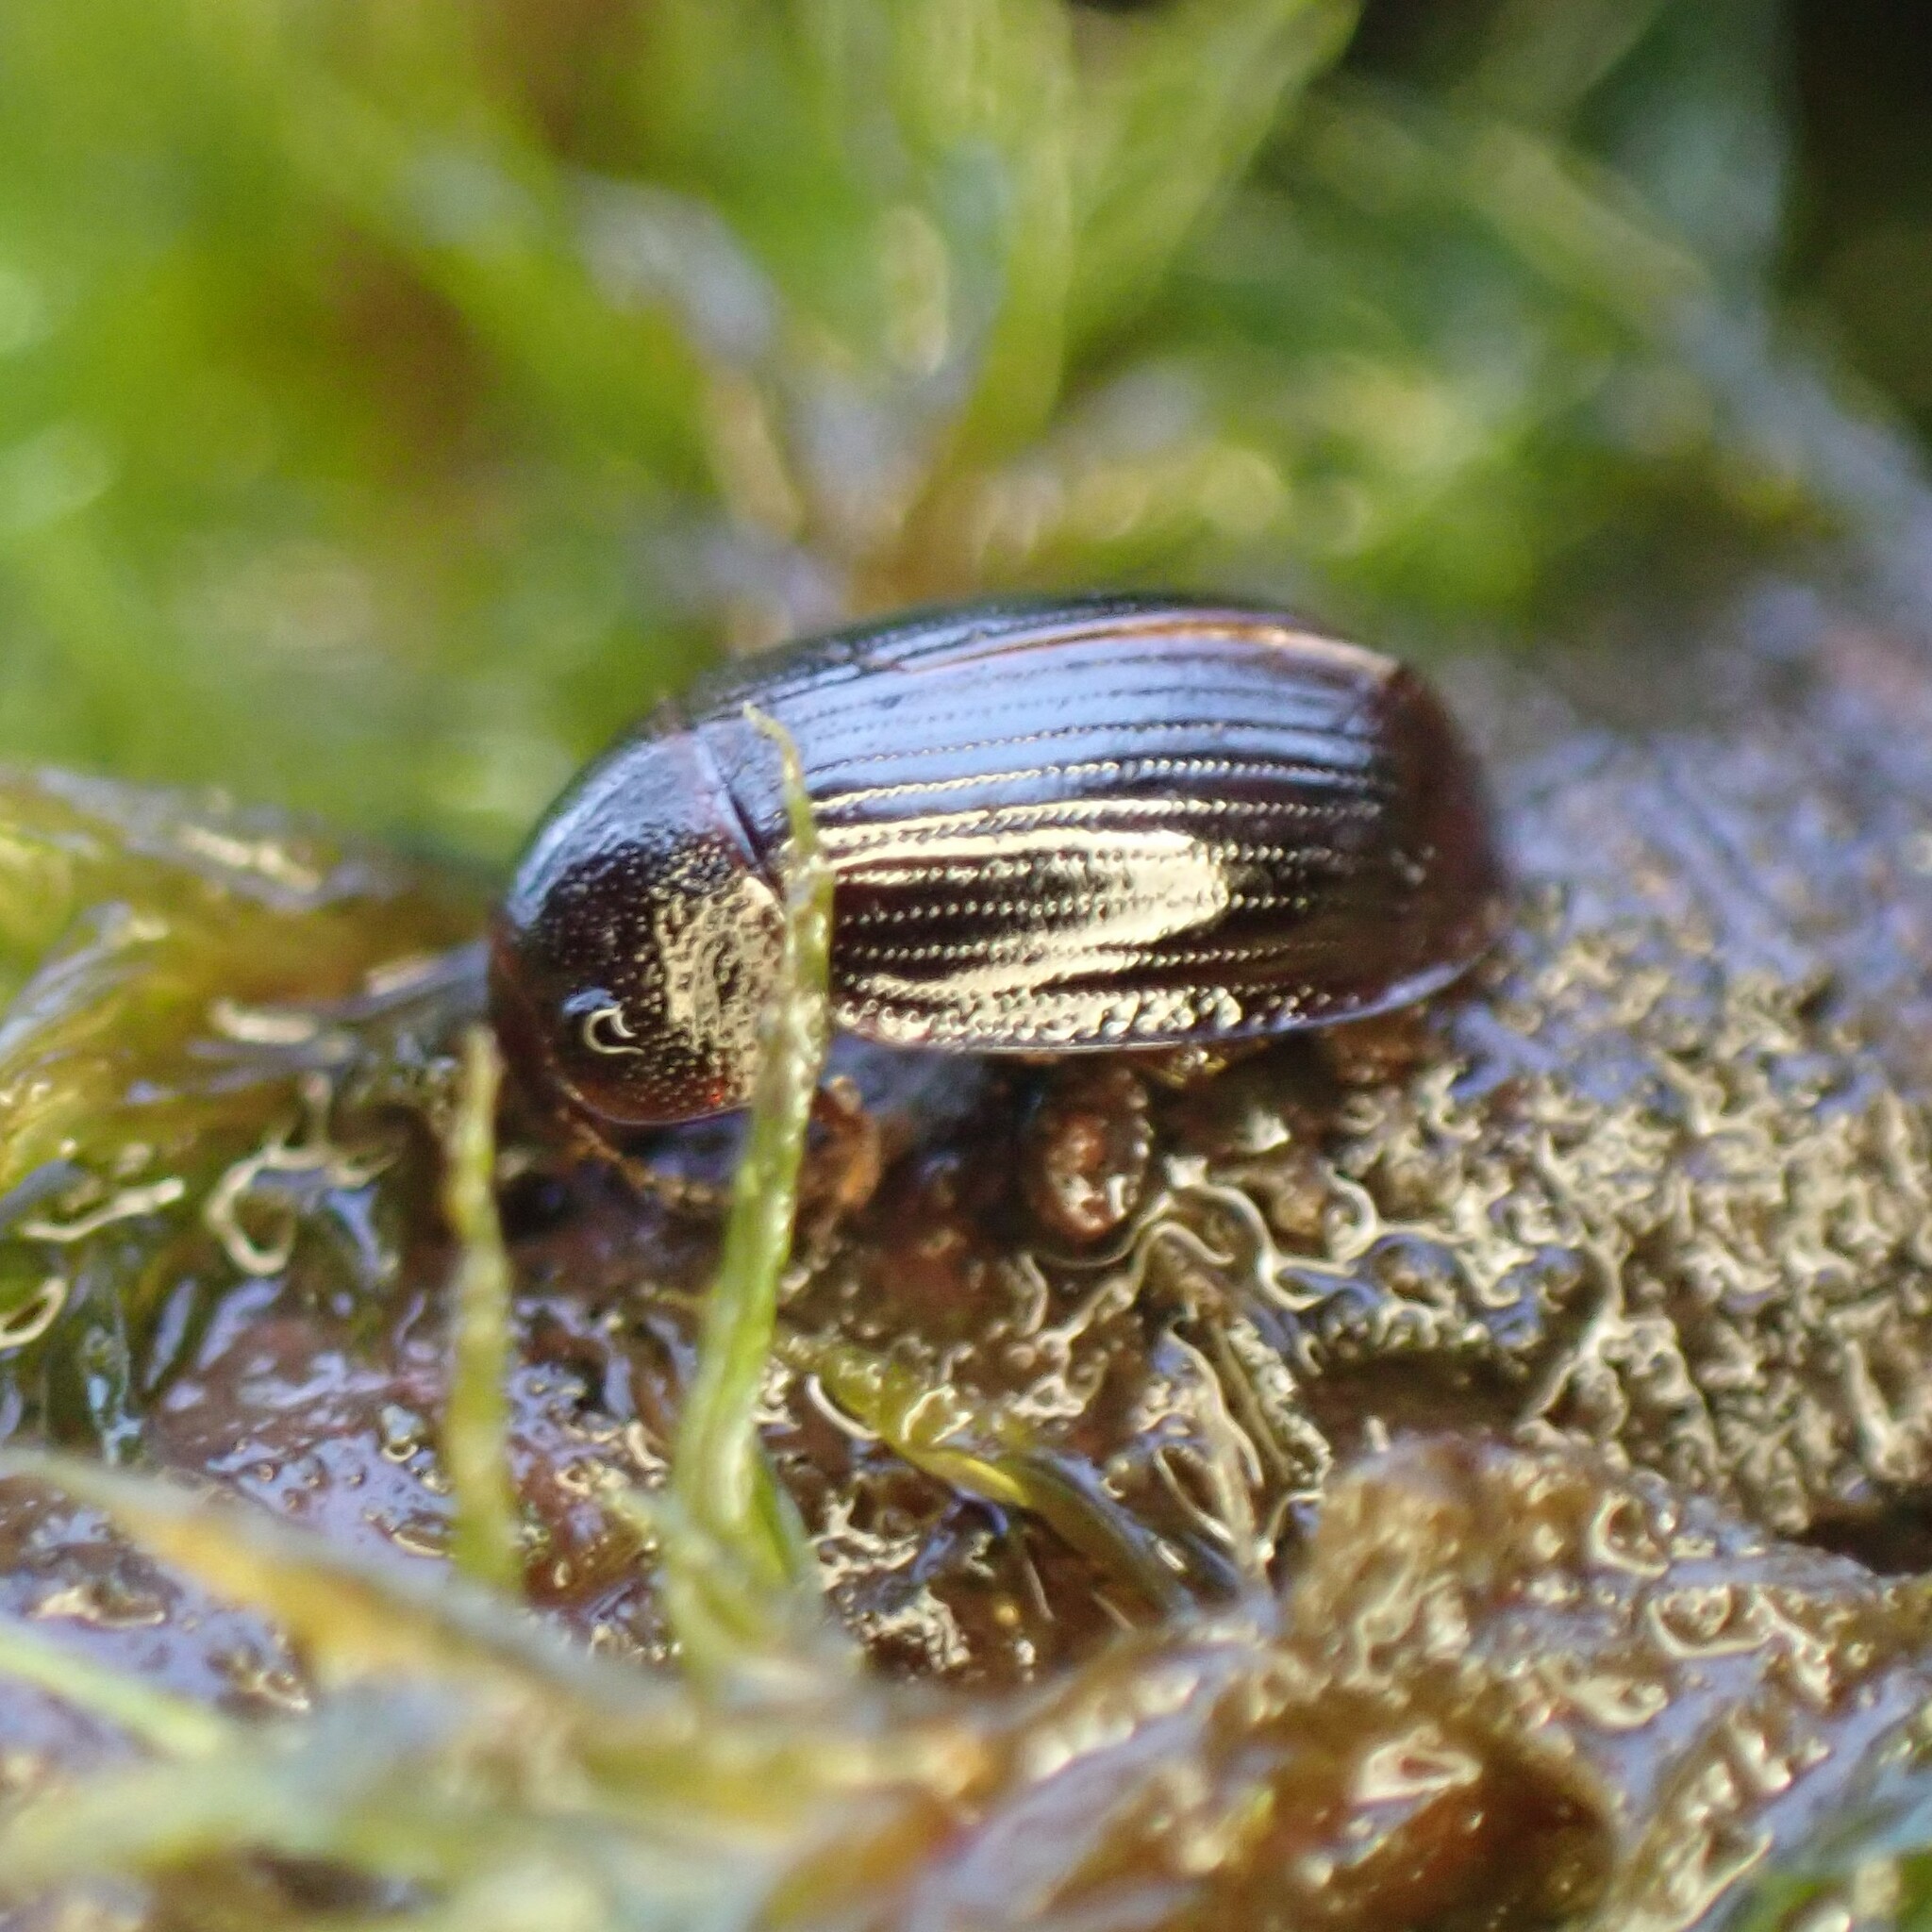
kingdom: Animalia
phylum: Arthropoda
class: Insecta
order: Coleoptera
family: Agyrtidae
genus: Ipelates
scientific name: Ipelates latus
